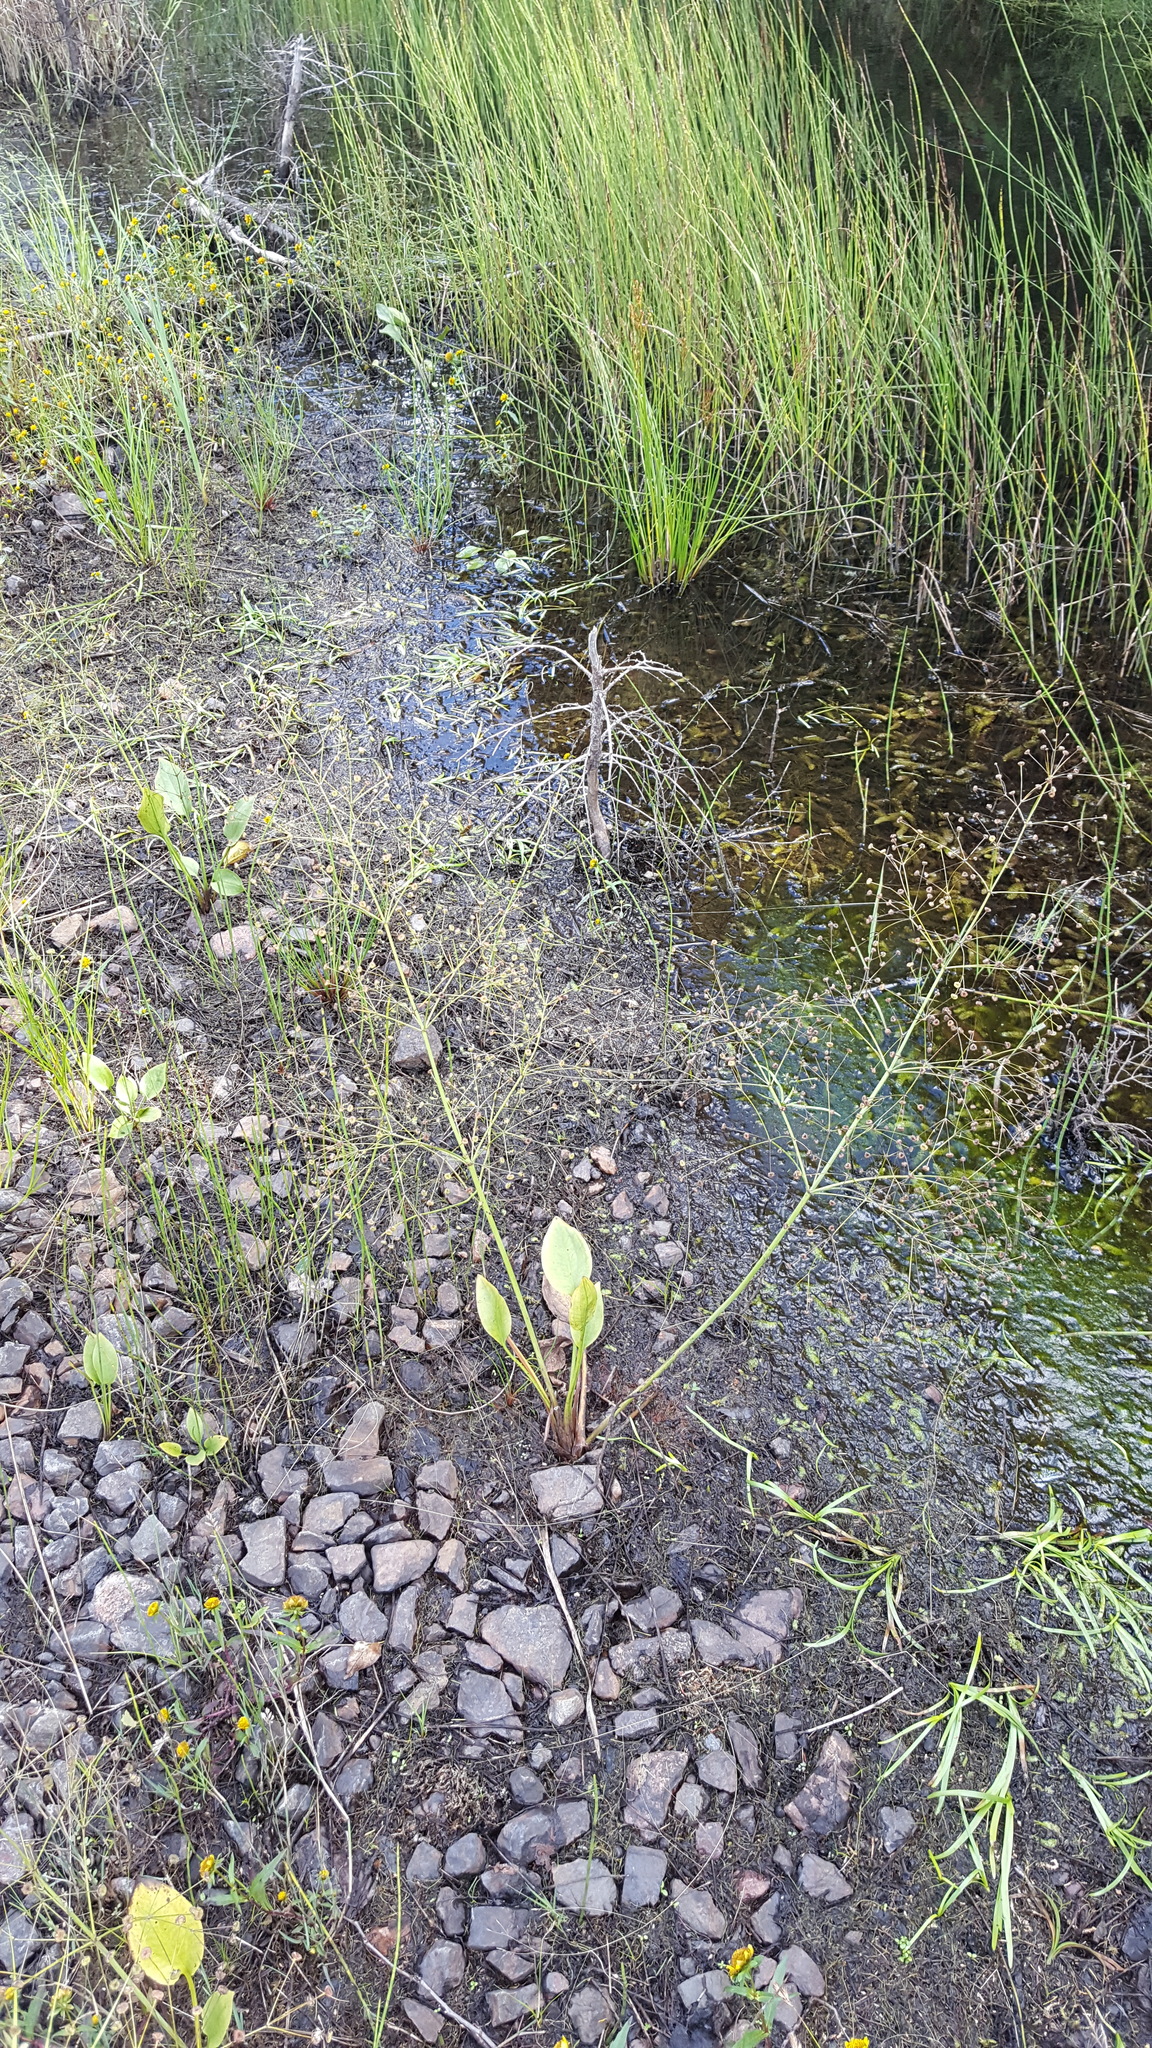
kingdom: Plantae
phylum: Tracheophyta
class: Liliopsida
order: Alismatales
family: Alismataceae
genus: Alisma
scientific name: Alisma triviale
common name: Northern water-plantain
